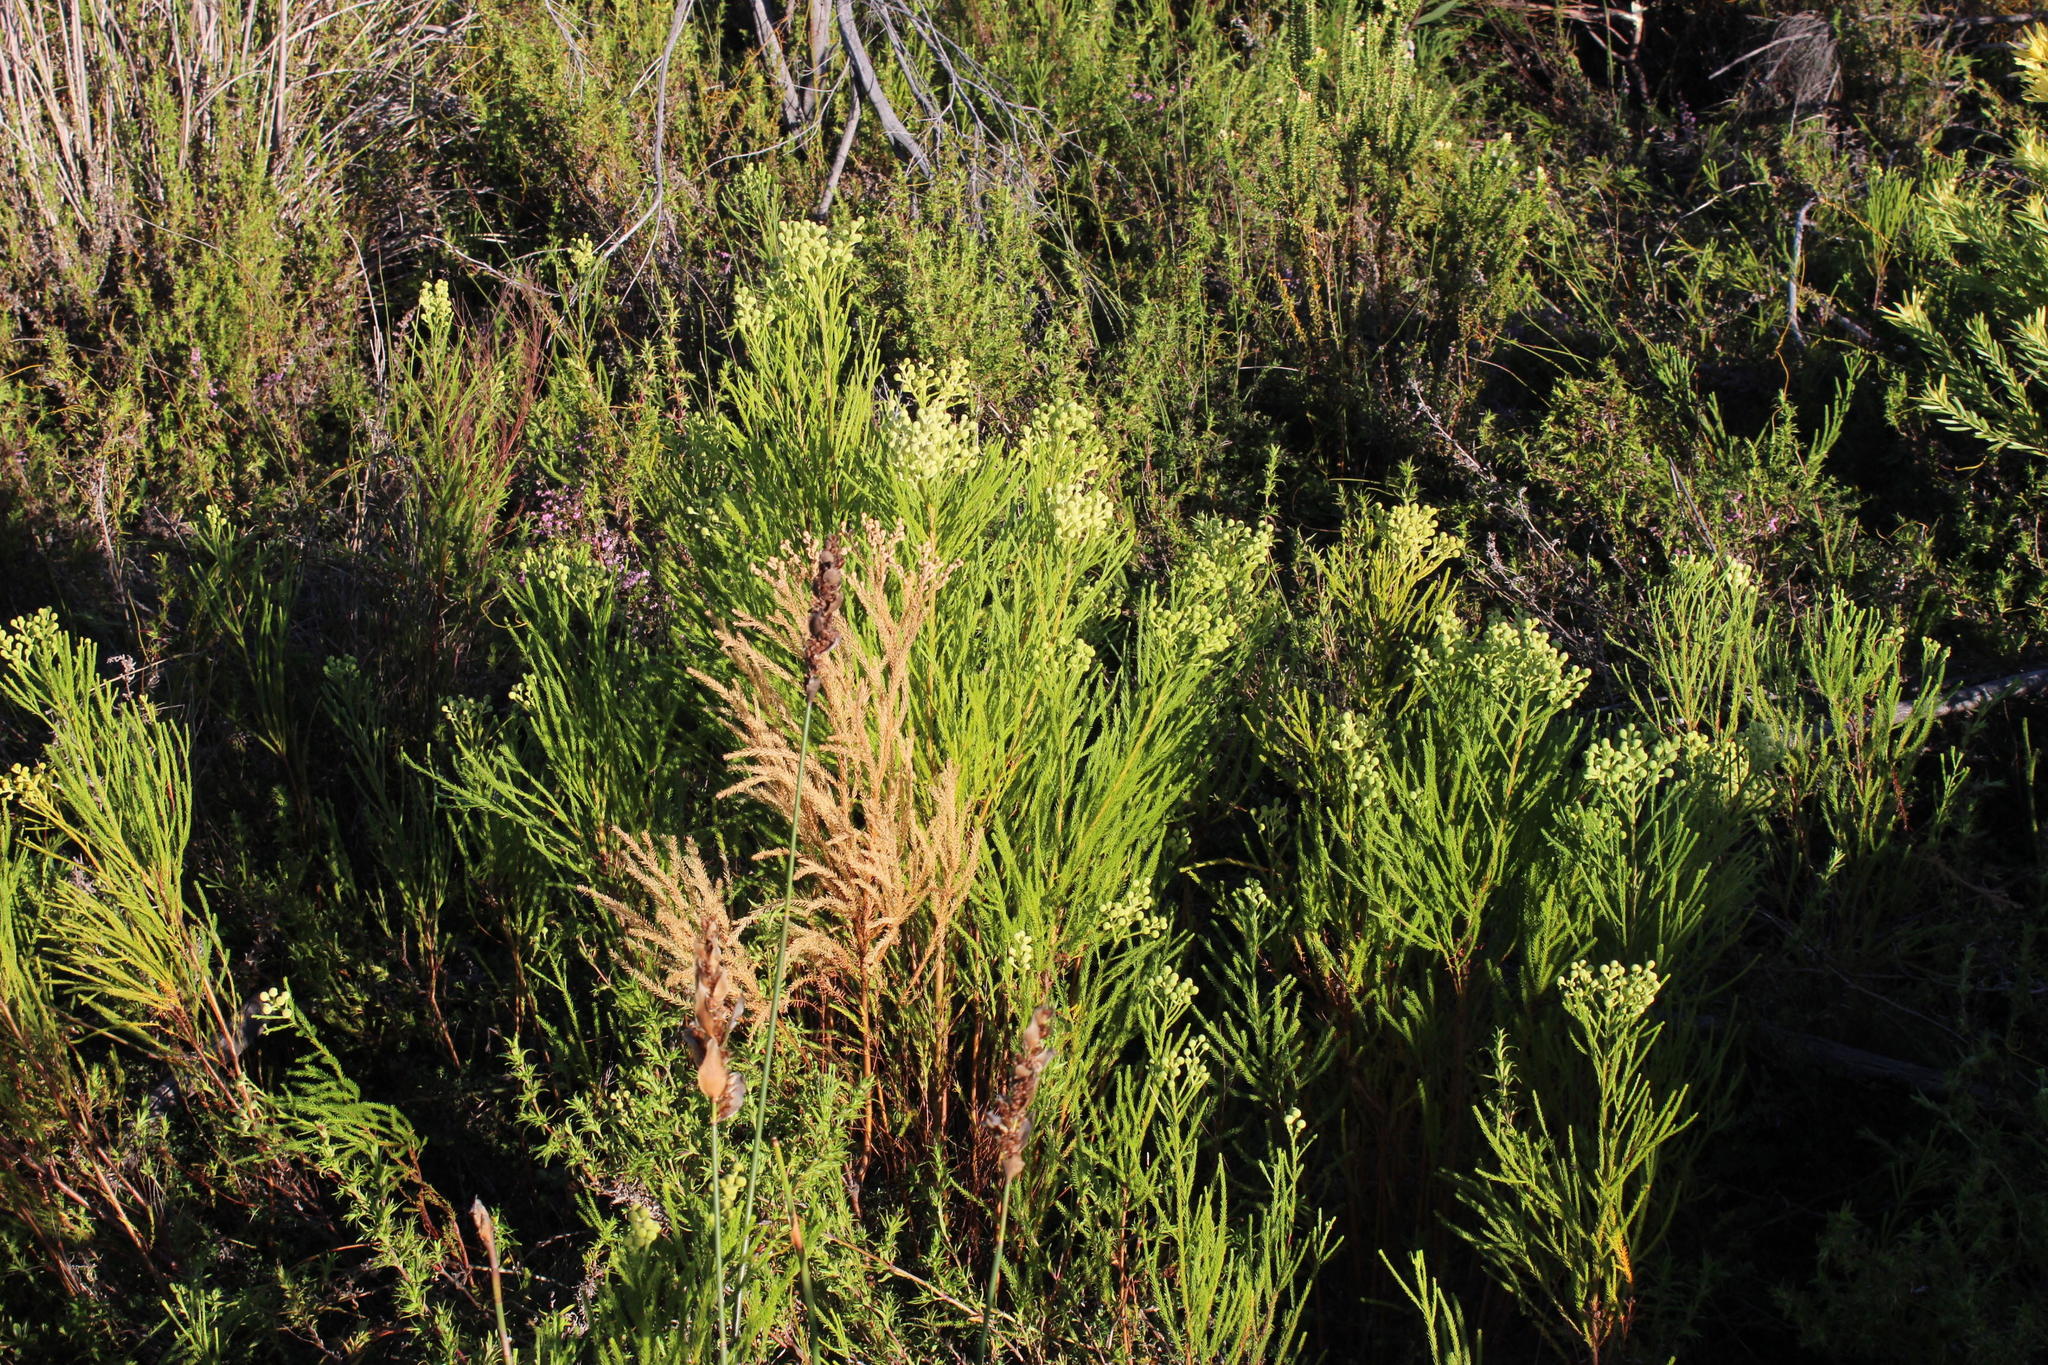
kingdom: Plantae
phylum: Tracheophyta
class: Magnoliopsida
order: Bruniales
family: Bruniaceae
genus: Berzelia
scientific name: Berzelia lanuginosa
